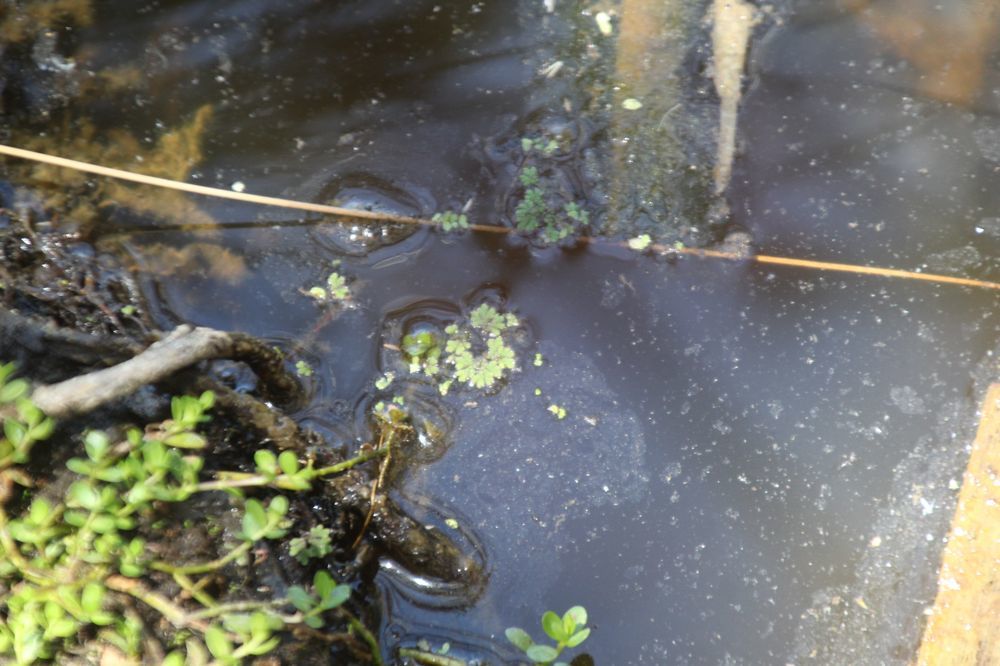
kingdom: Plantae
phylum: Tracheophyta
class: Polypodiopsida
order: Salviniales
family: Salviniaceae
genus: Azolla
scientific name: Azolla rubra
